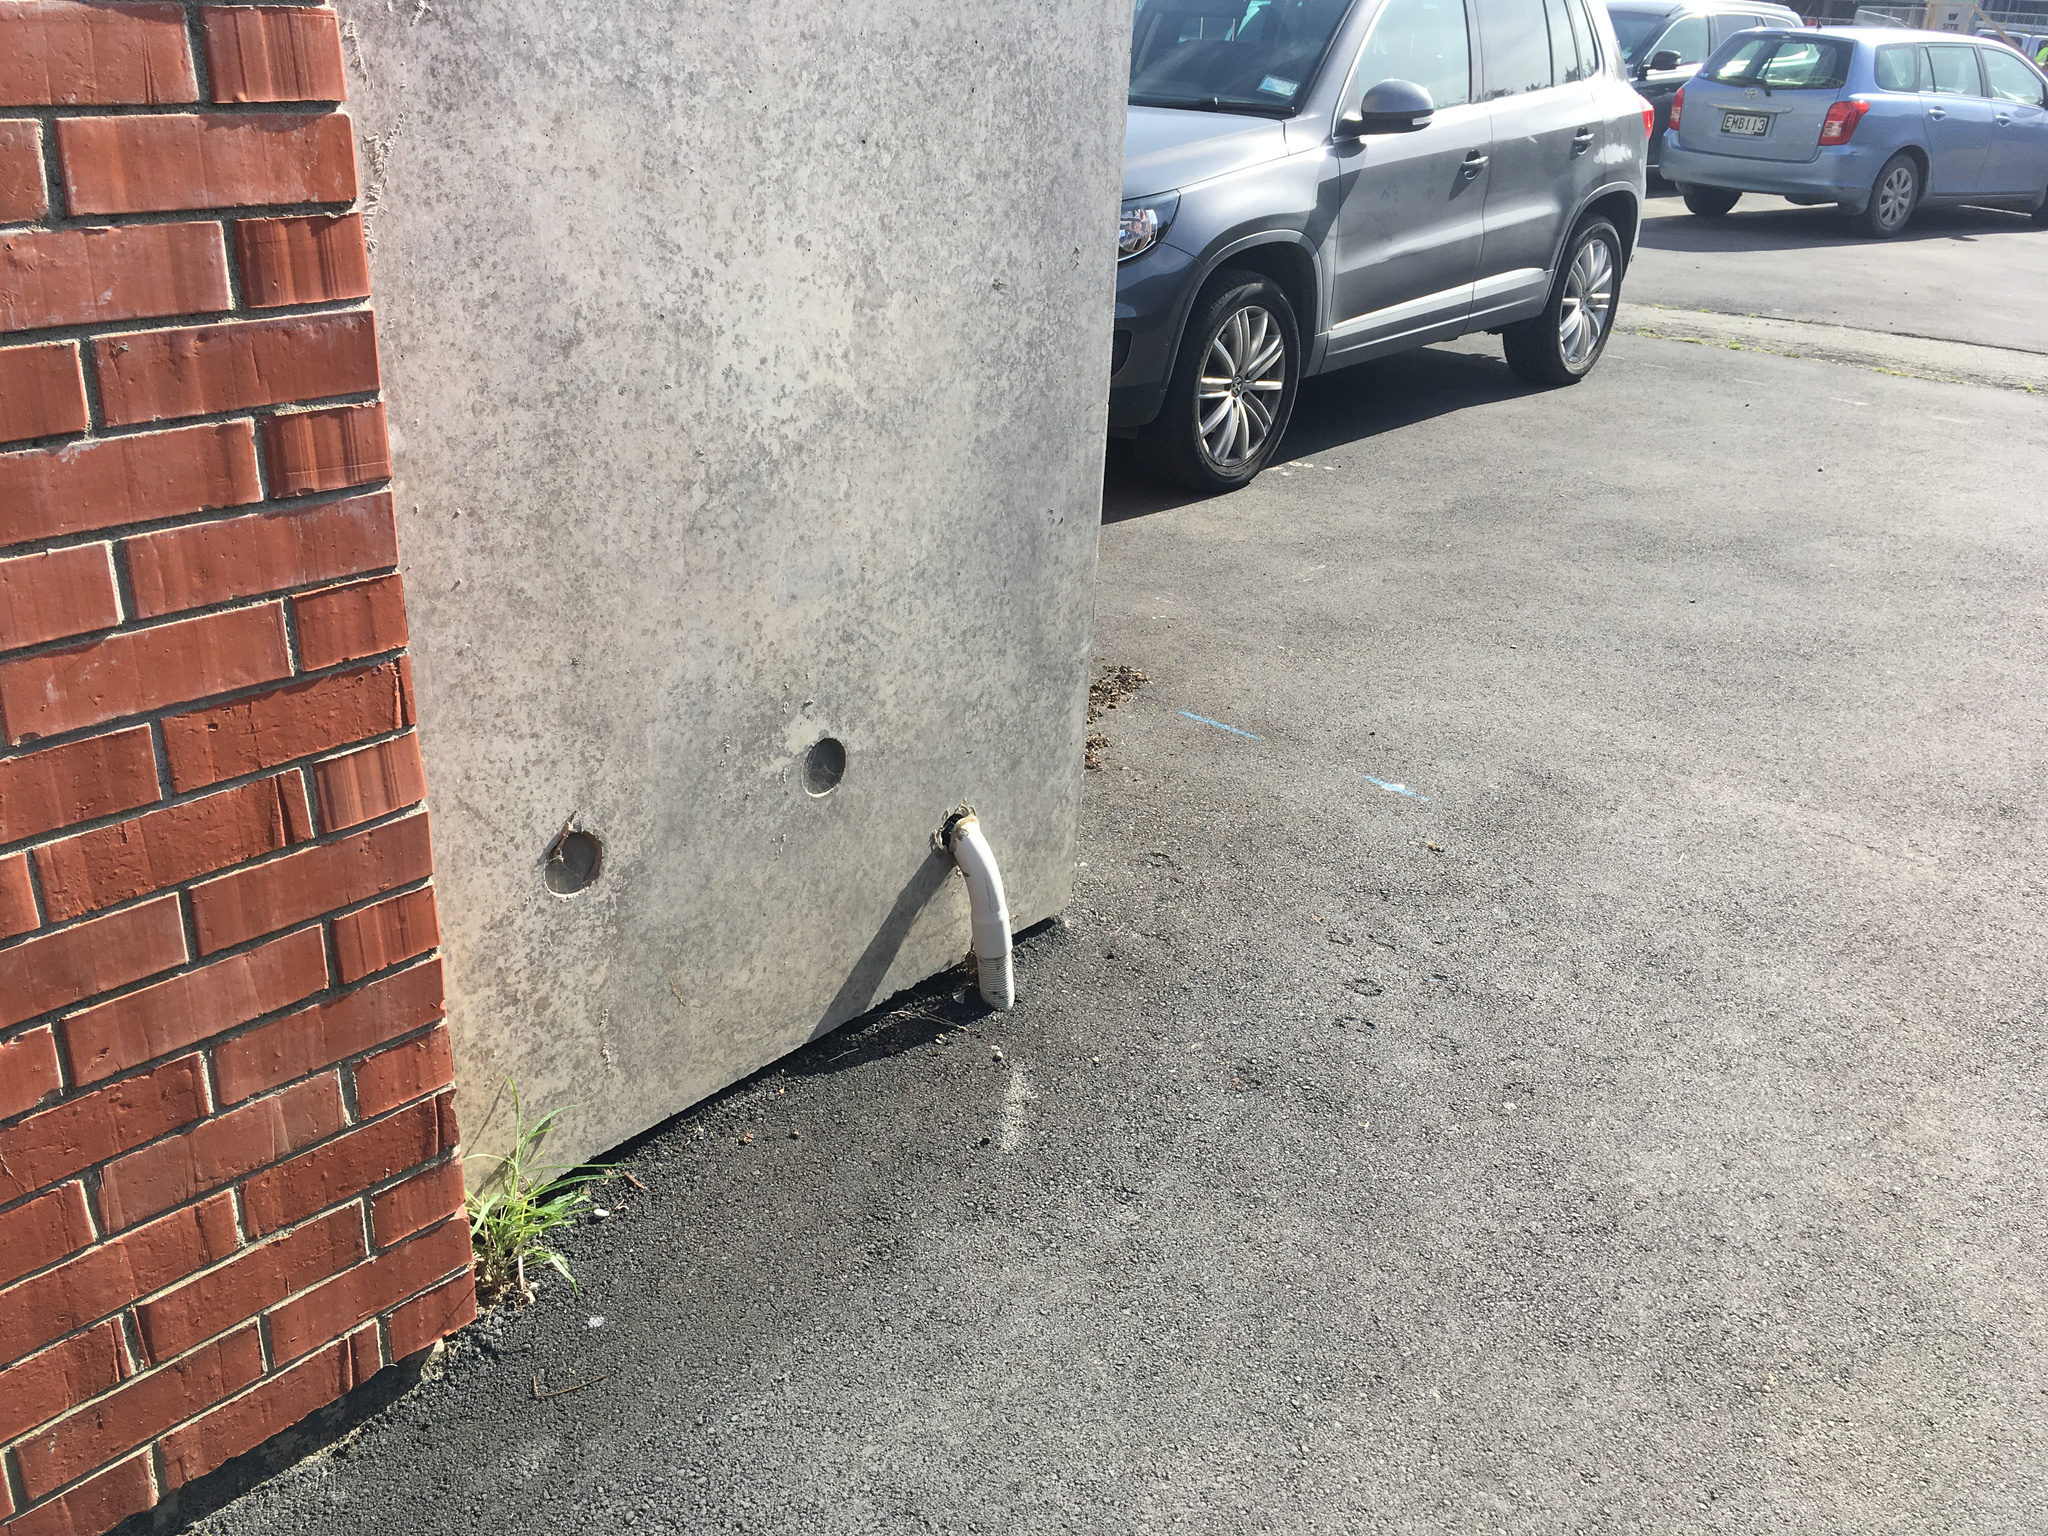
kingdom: Plantae
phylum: Tracheophyta
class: Magnoliopsida
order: Asterales
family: Asteraceae
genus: Senecio
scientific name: Senecio quadridentatus
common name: Cotton fireweed
